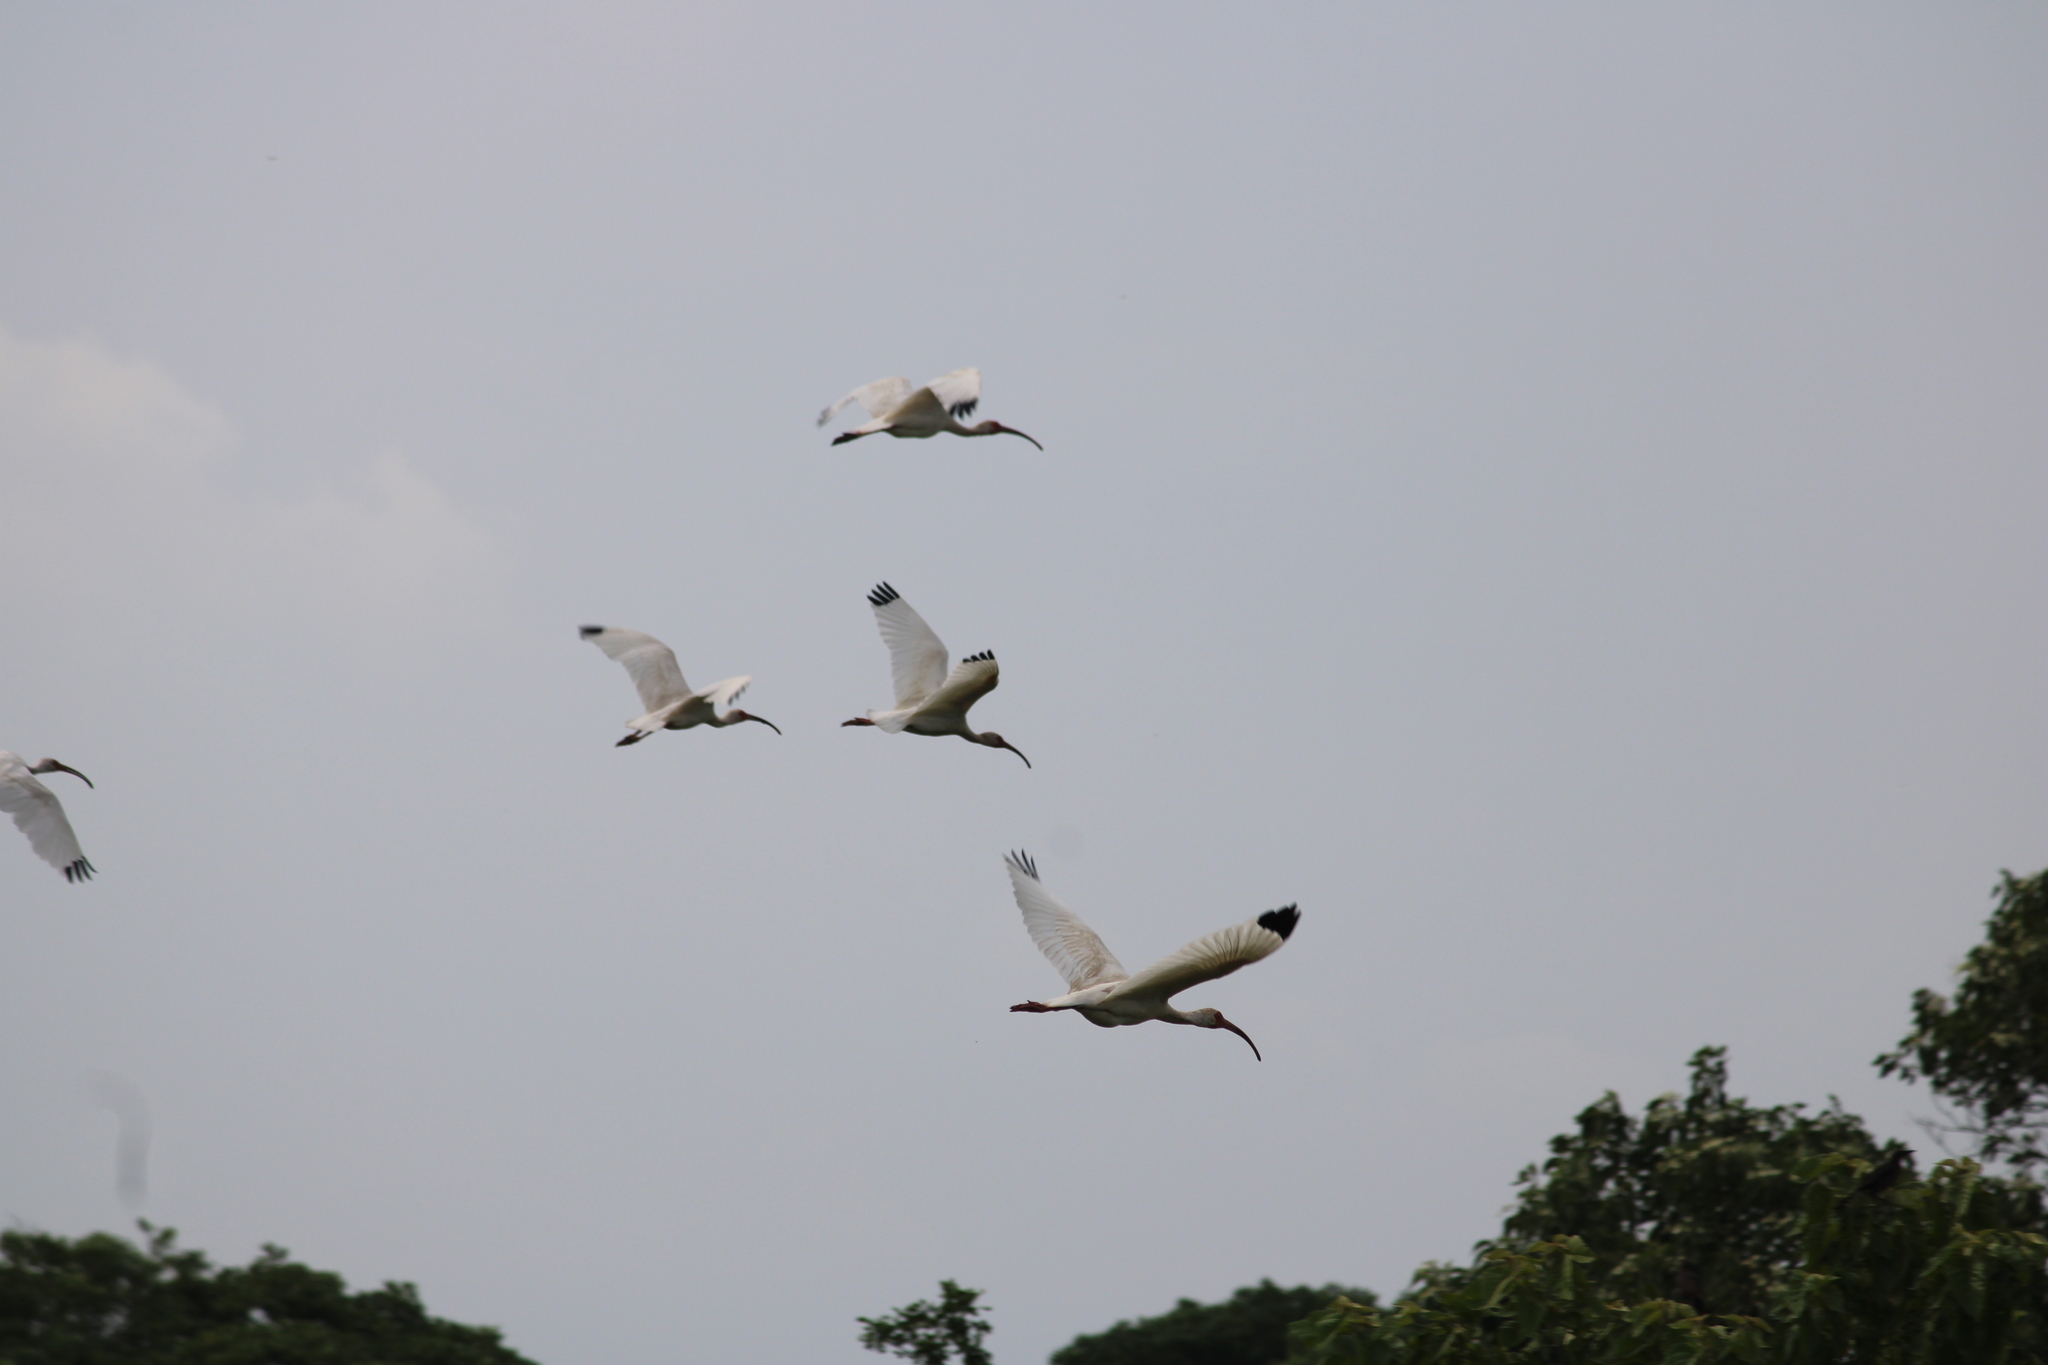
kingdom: Animalia
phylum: Chordata
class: Aves
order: Pelecaniformes
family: Threskiornithidae
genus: Eudocimus
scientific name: Eudocimus albus
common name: White ibis
